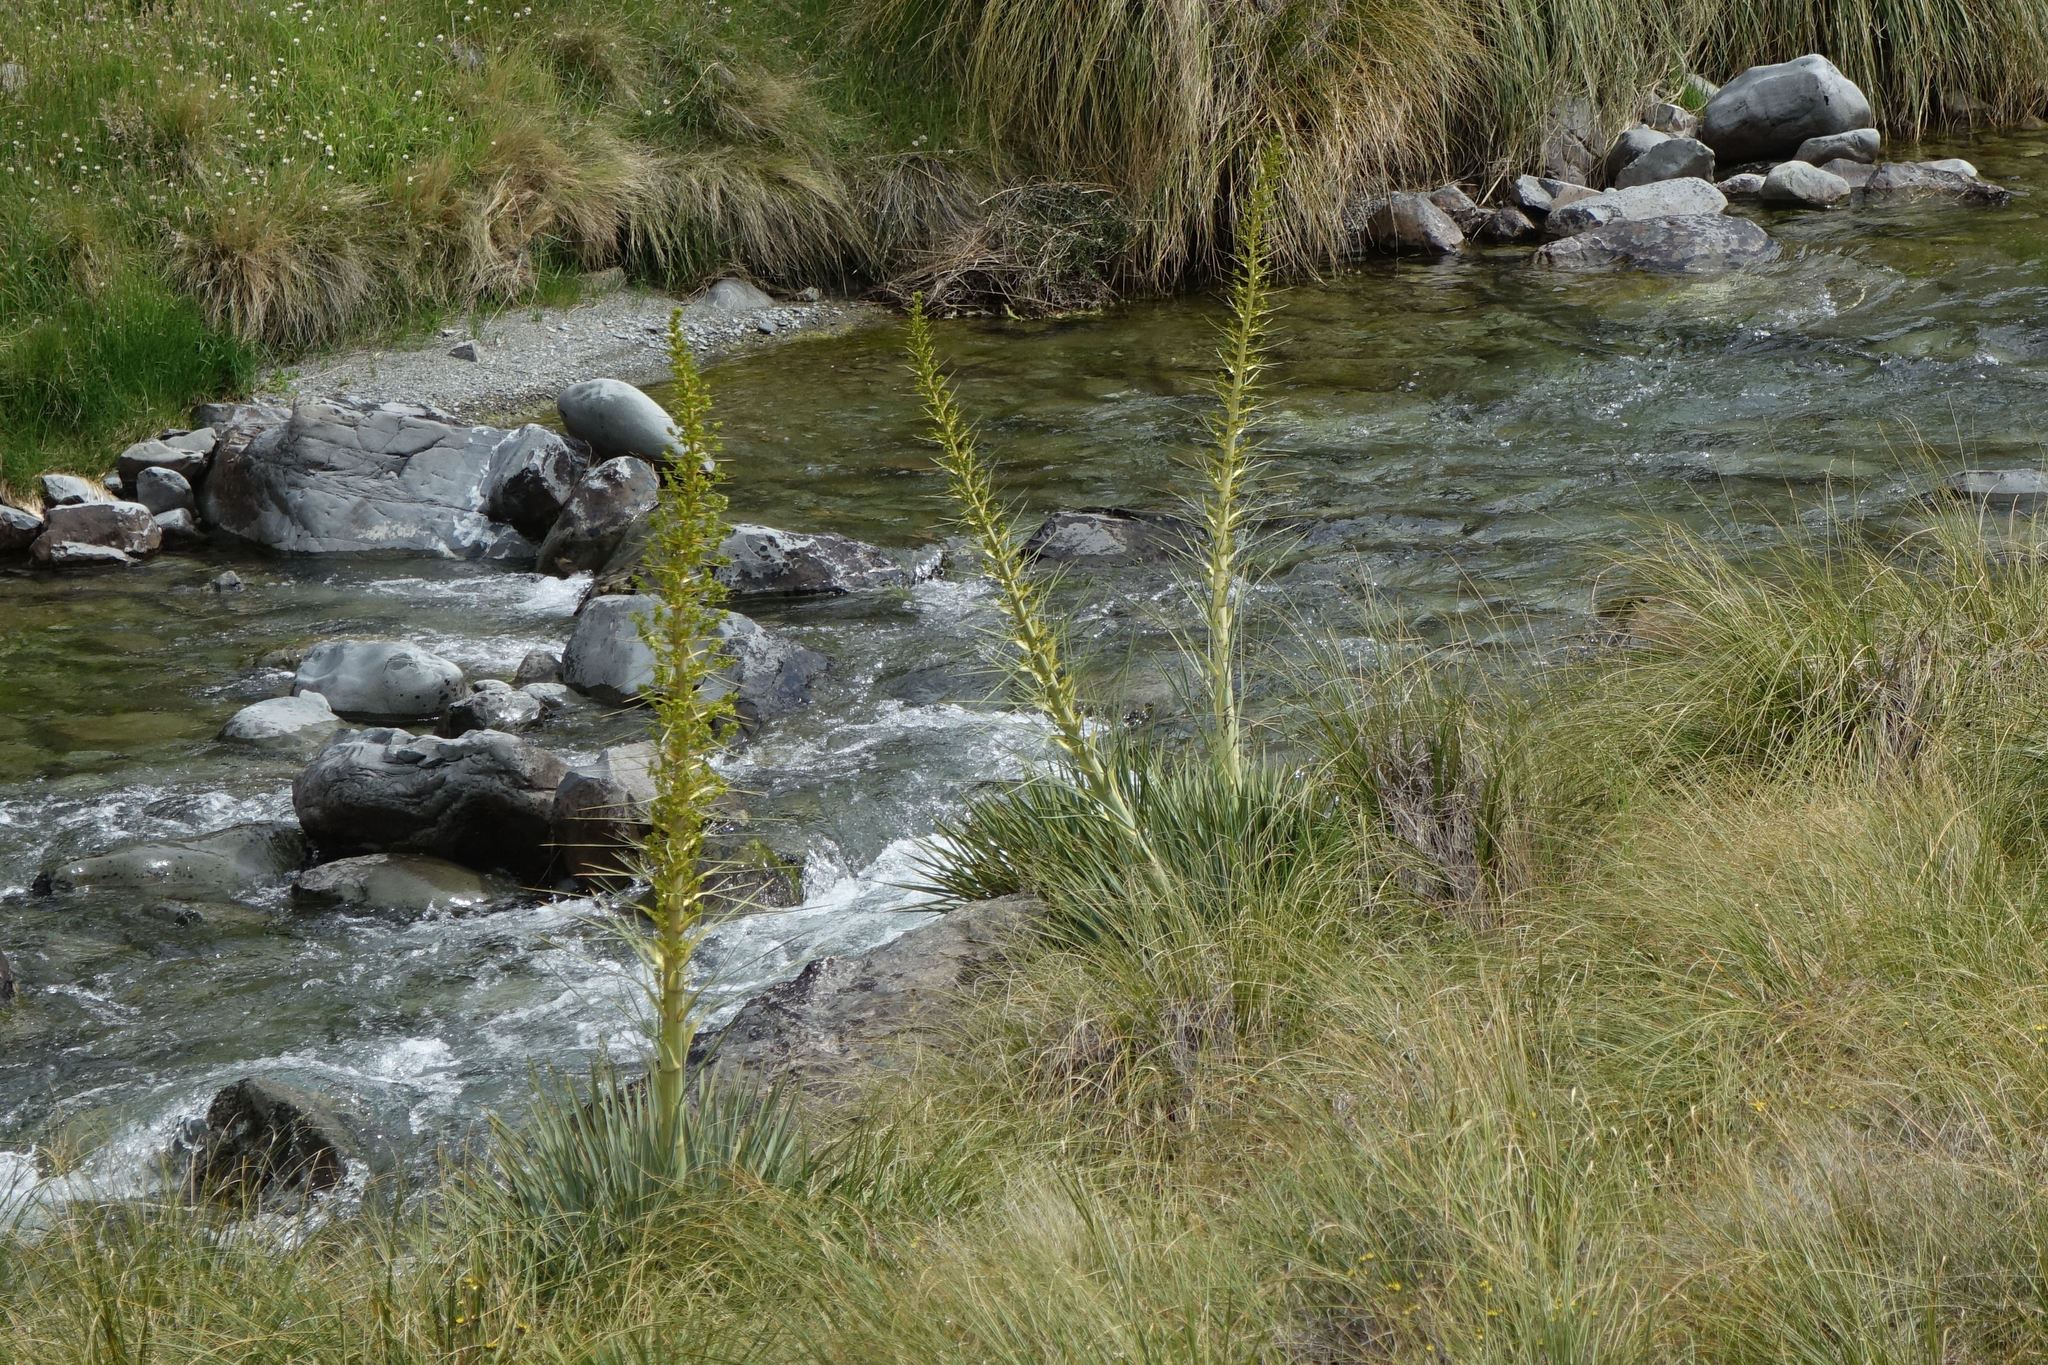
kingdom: Plantae
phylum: Tracheophyta
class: Magnoliopsida
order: Apiales
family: Apiaceae
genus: Aciphylla
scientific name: Aciphylla scott-thomsonii
